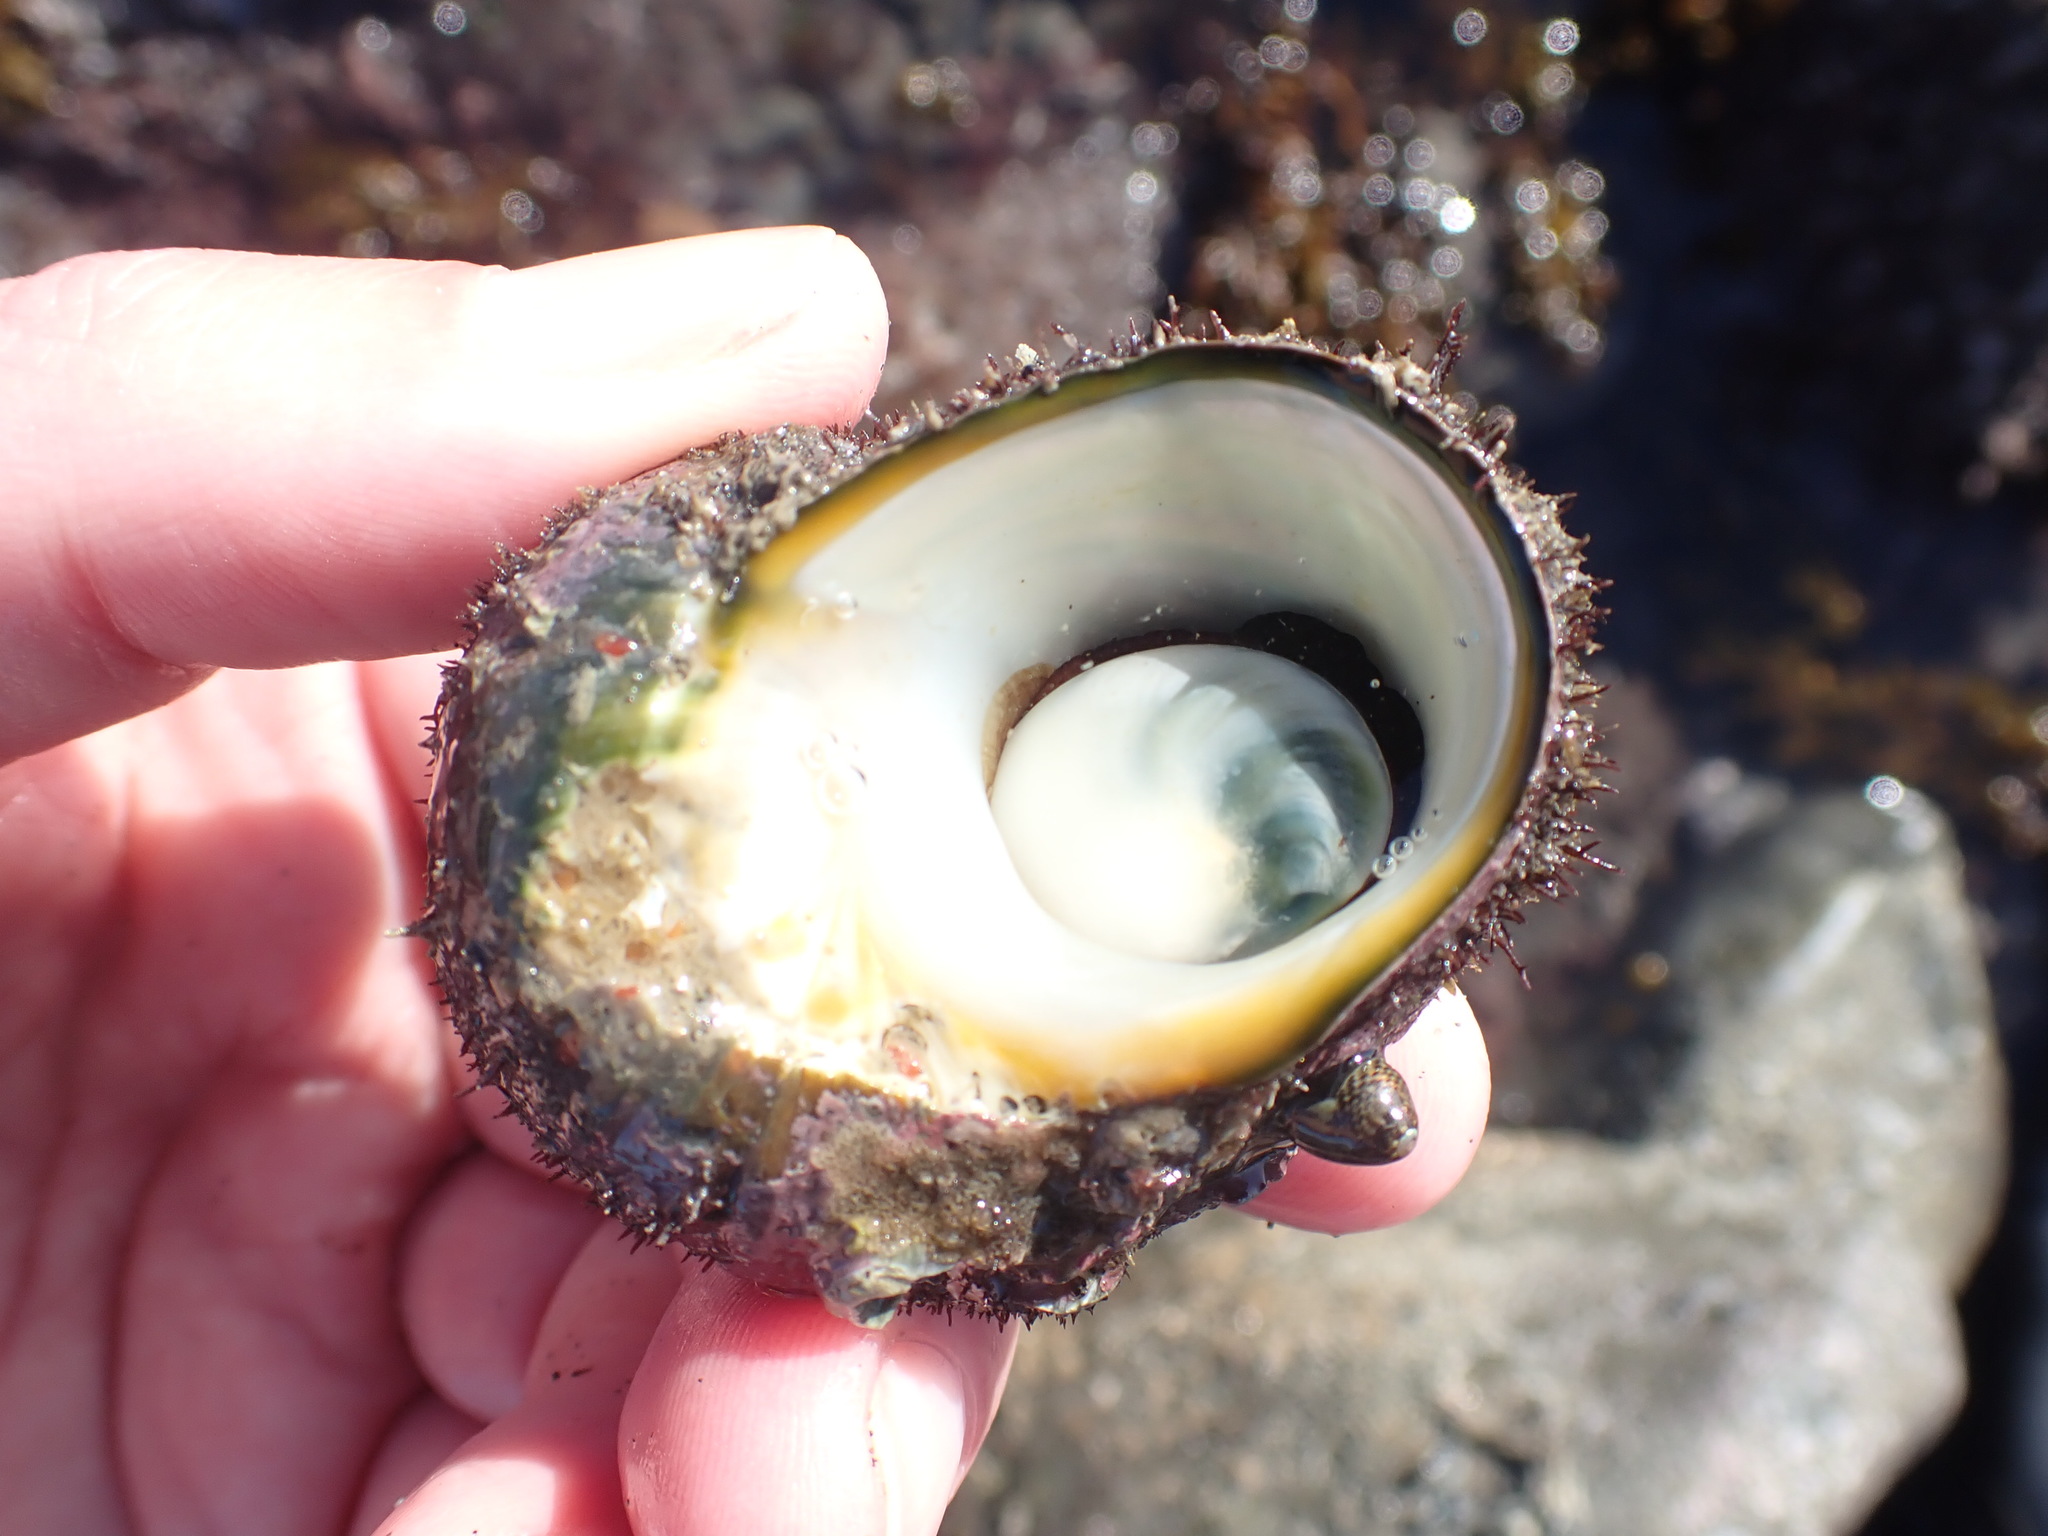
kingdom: Animalia
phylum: Mollusca
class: Gastropoda
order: Trochida
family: Turbinidae
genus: Lunella
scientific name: Lunella smaragda
